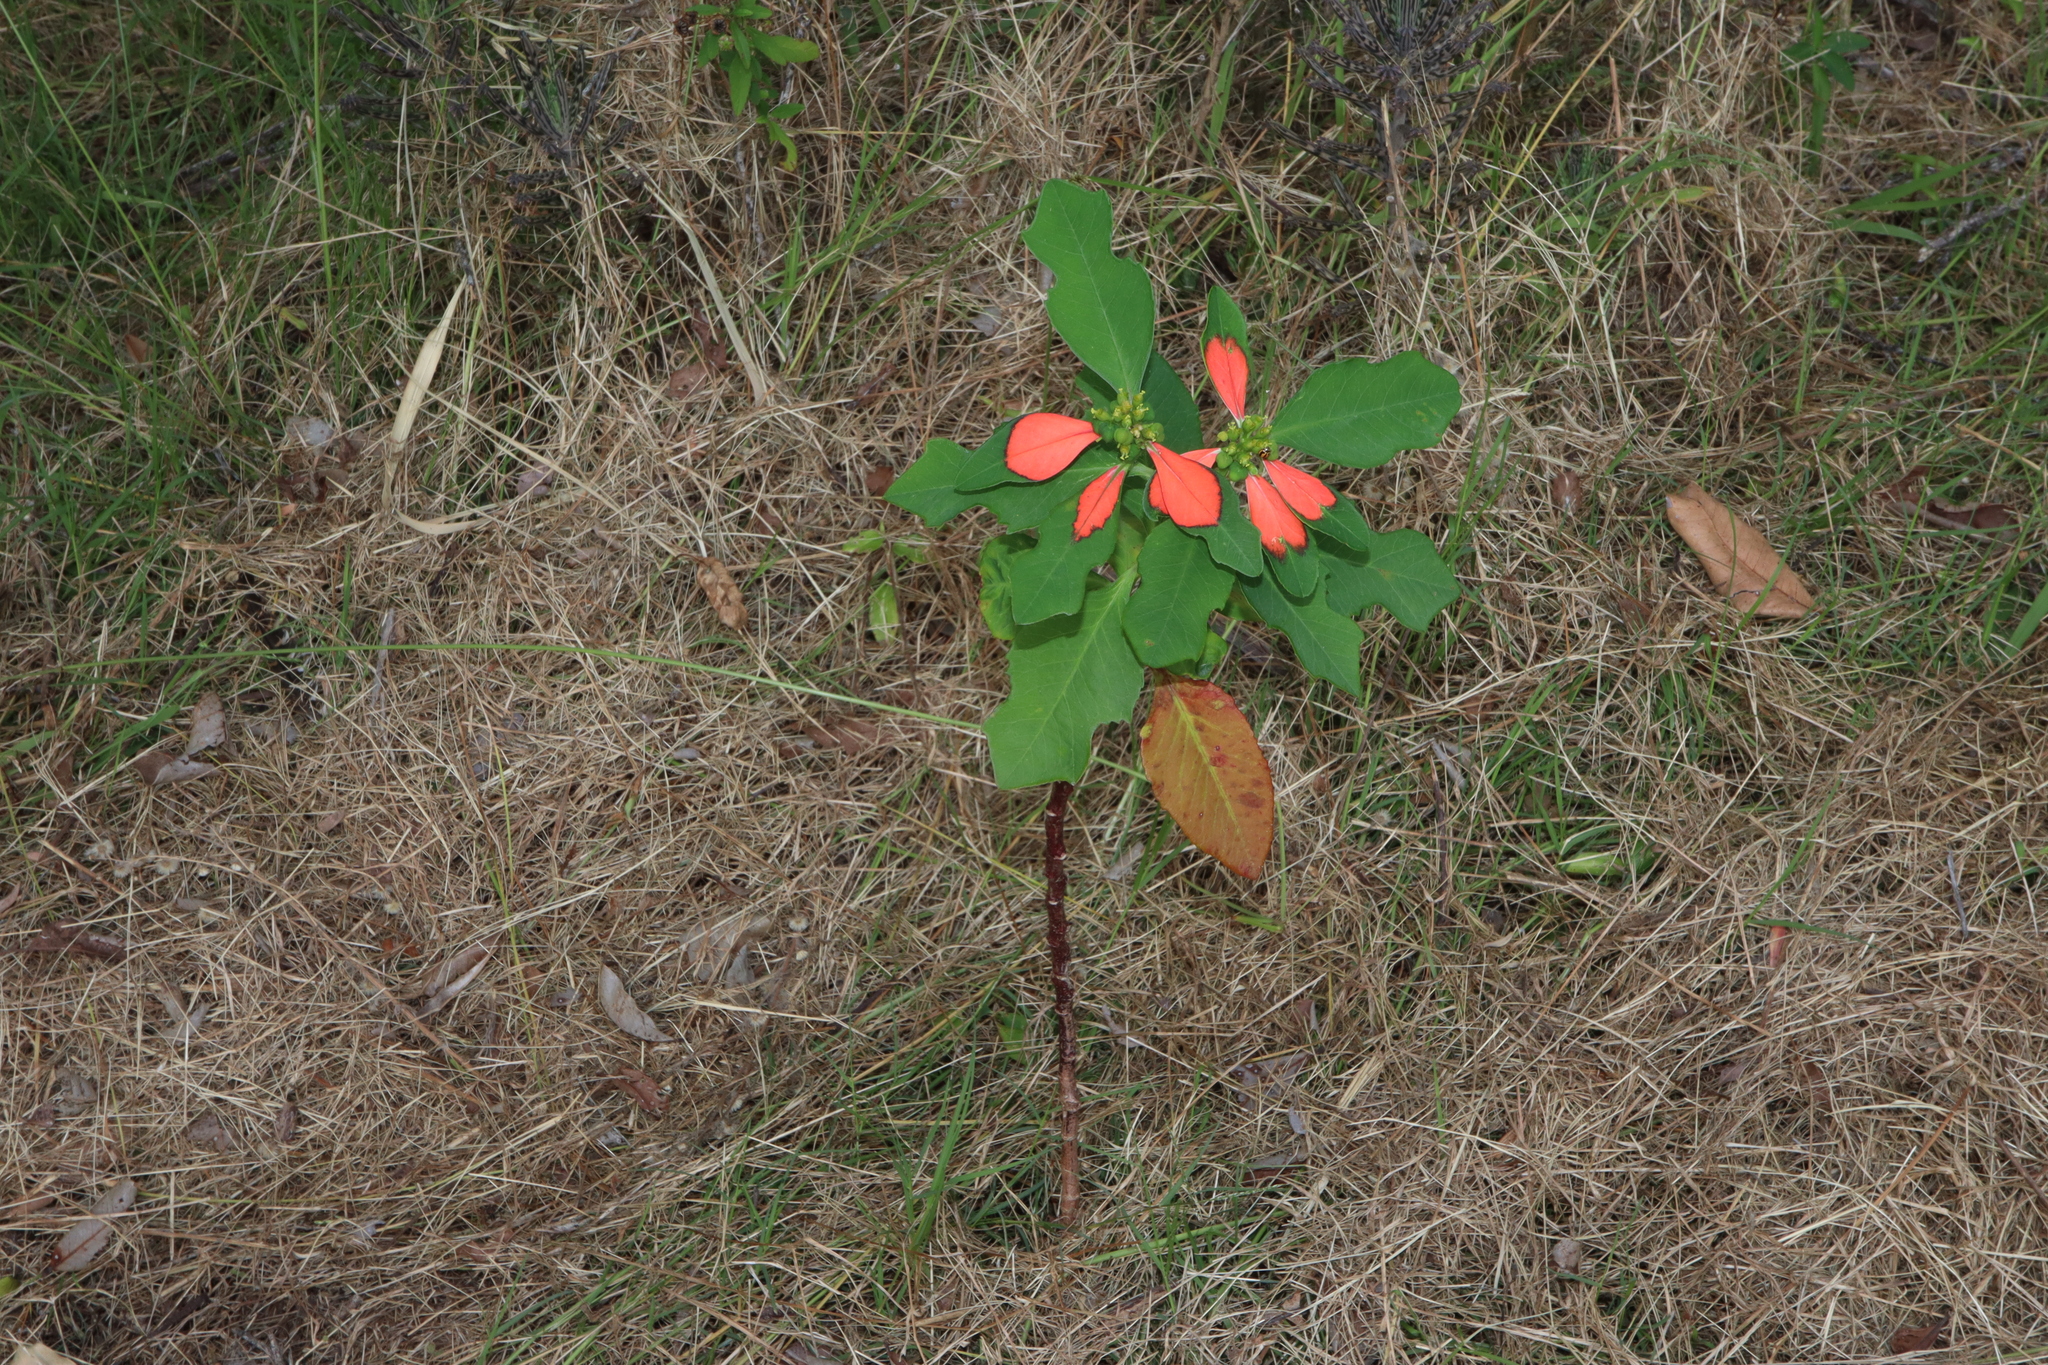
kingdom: Plantae
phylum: Tracheophyta
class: Magnoliopsida
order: Malpighiales
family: Euphorbiaceae
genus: Euphorbia
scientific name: Euphorbia heterophylla
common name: Mexican fireplant
